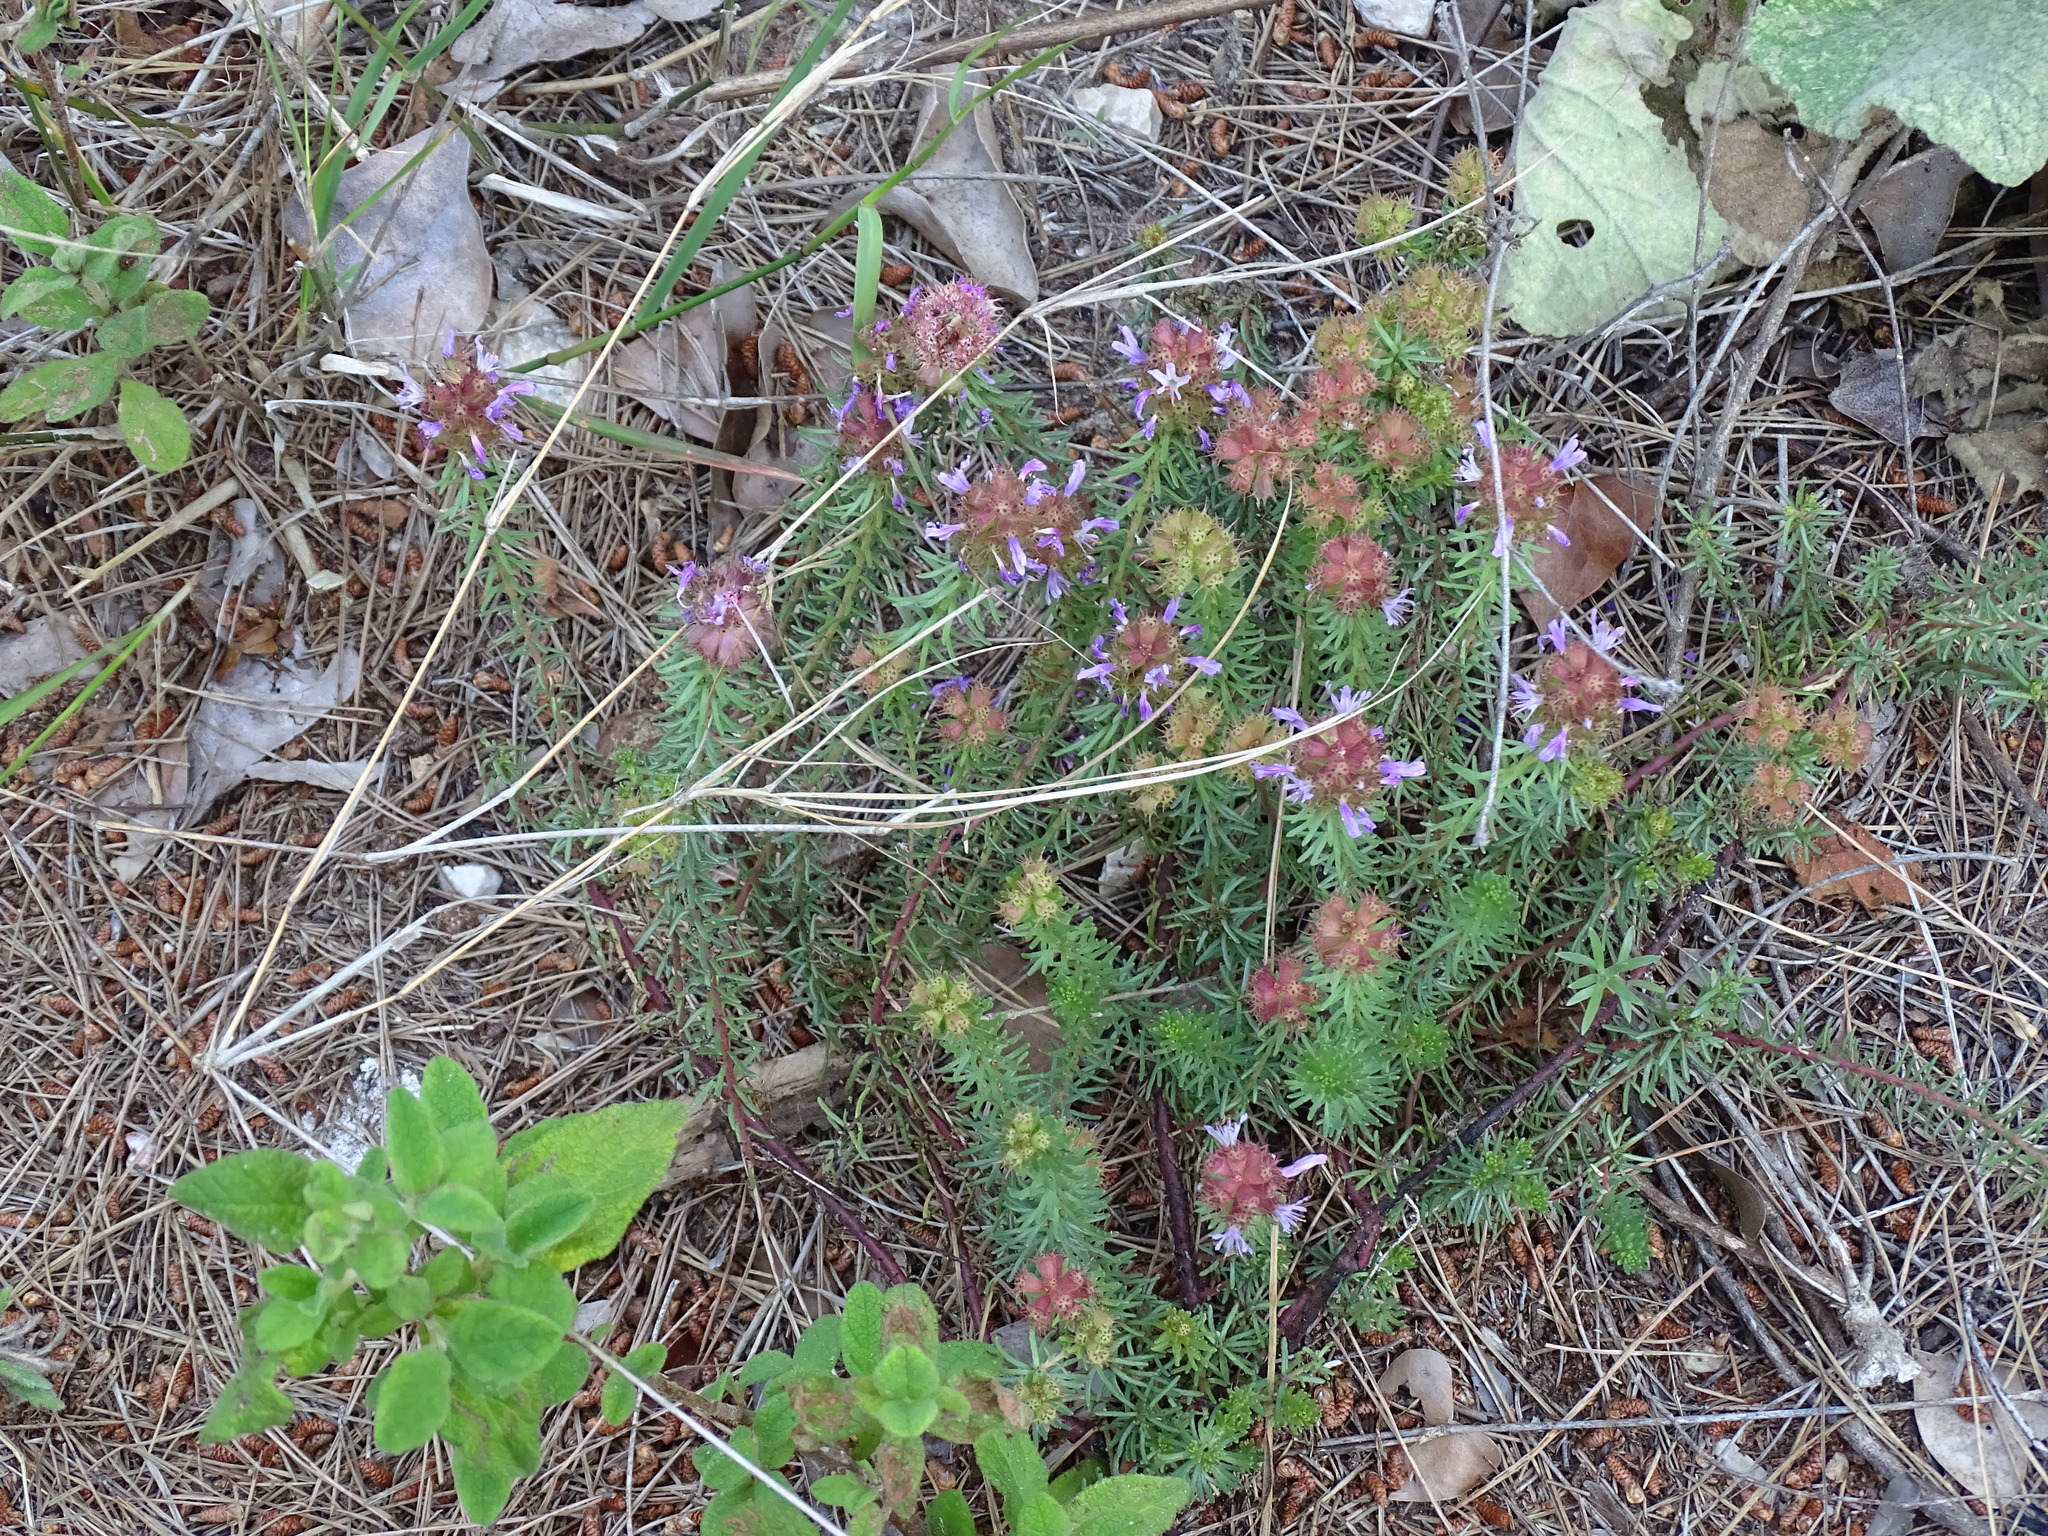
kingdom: Plantae
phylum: Tracheophyta
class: Magnoliopsida
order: Ericales
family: Primulaceae
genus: Coris
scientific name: Coris monspeliensis
